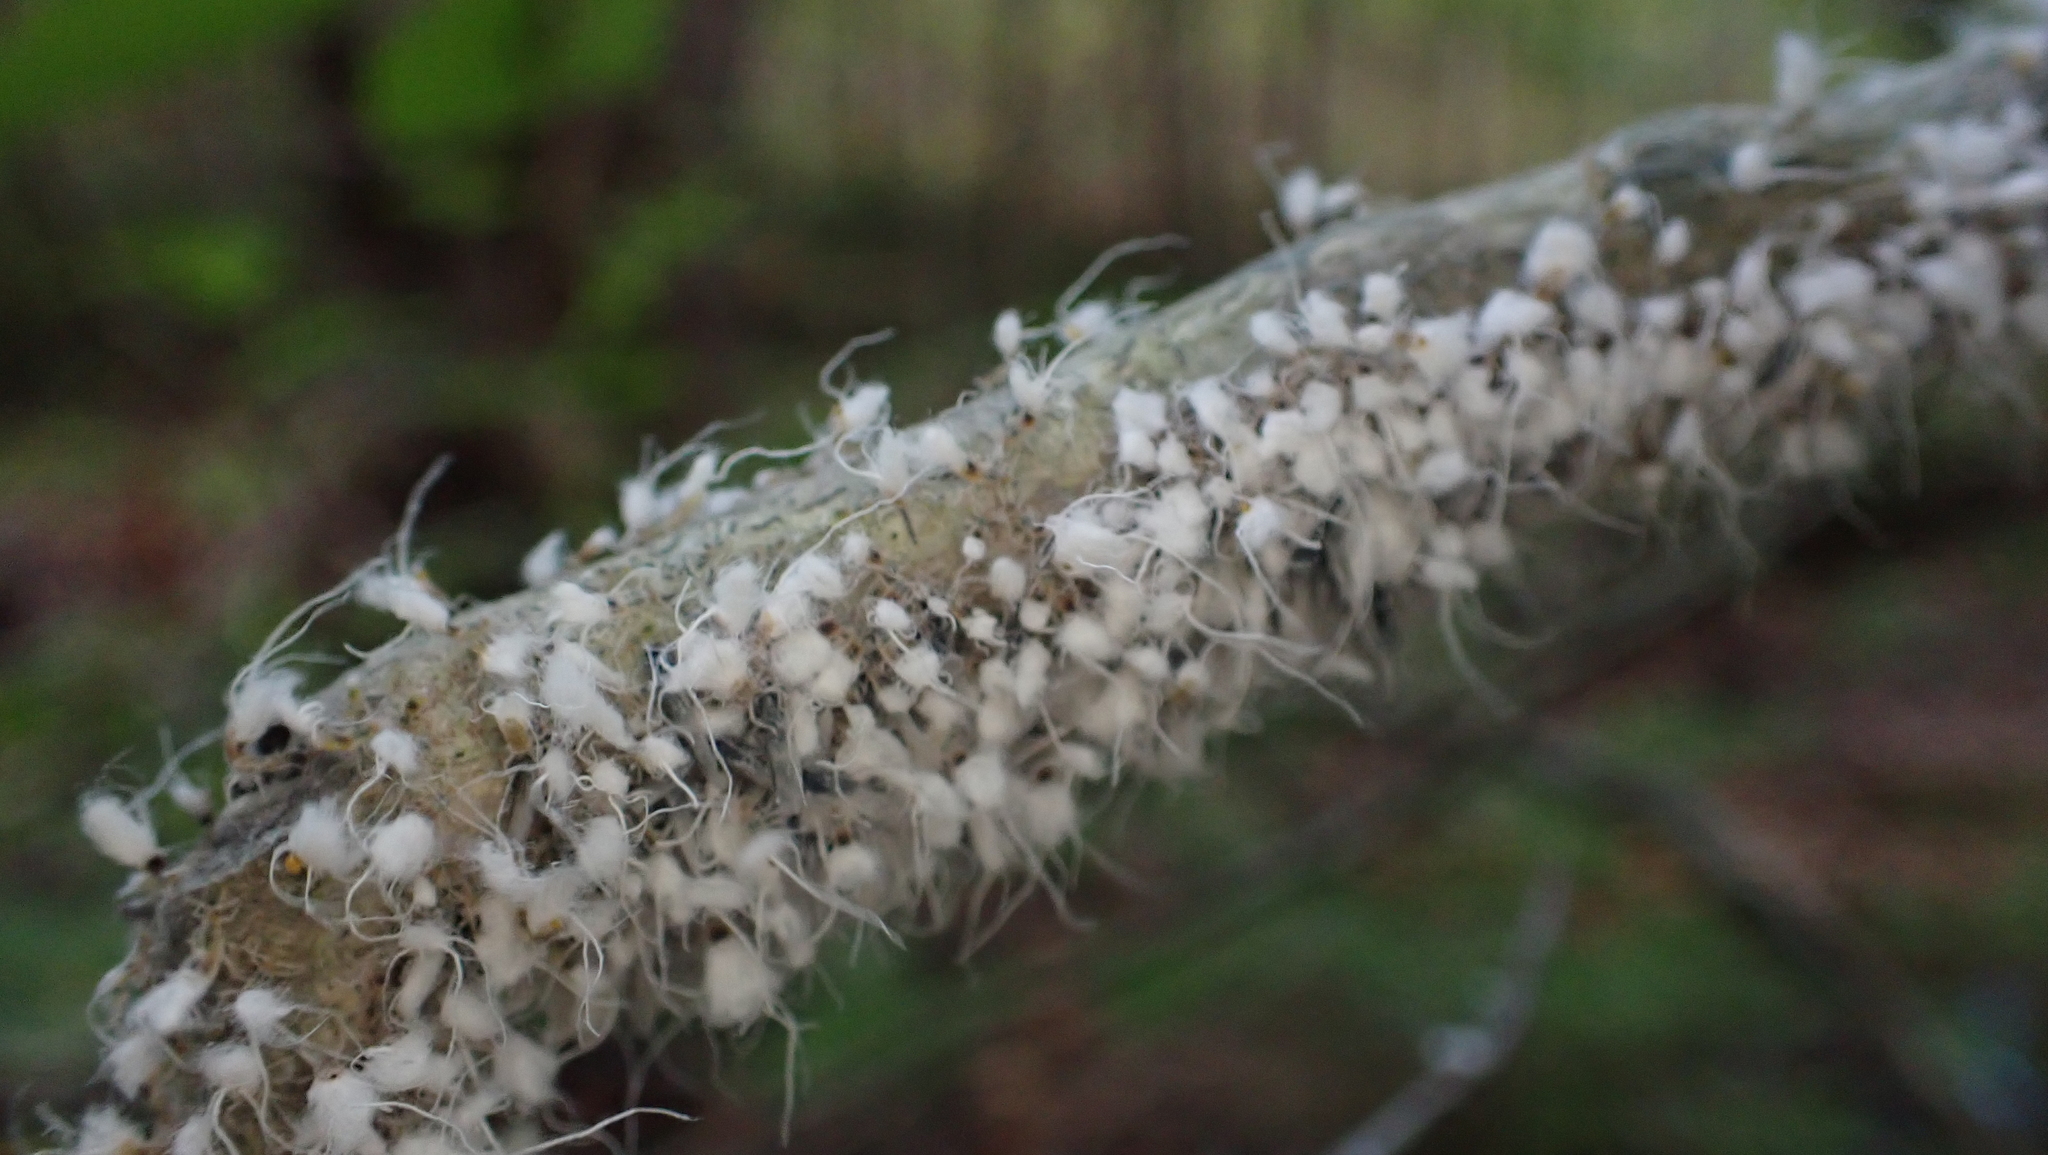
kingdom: Animalia
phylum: Arthropoda
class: Insecta
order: Hemiptera
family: Aphididae
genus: Grylloprociphilus
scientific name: Grylloprociphilus imbricator
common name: Beech blight aphid
